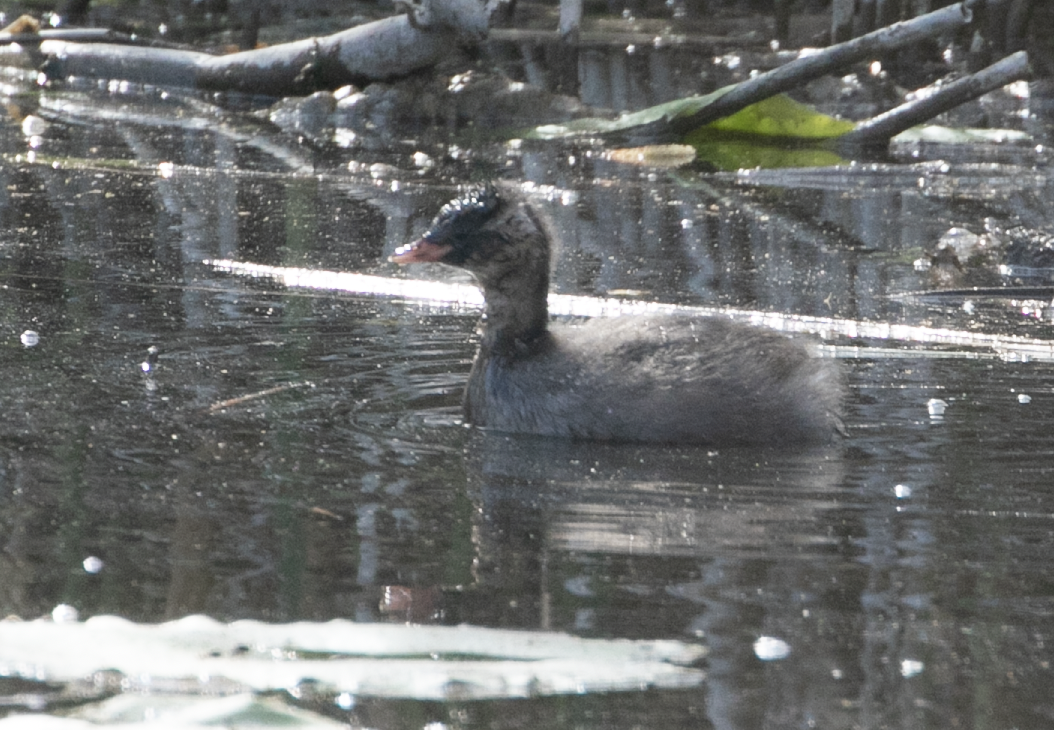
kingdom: Animalia
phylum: Chordata
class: Aves
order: Podicipediformes
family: Podicipedidae
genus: Tachybaptus
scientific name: Tachybaptus ruficollis
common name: Little grebe
